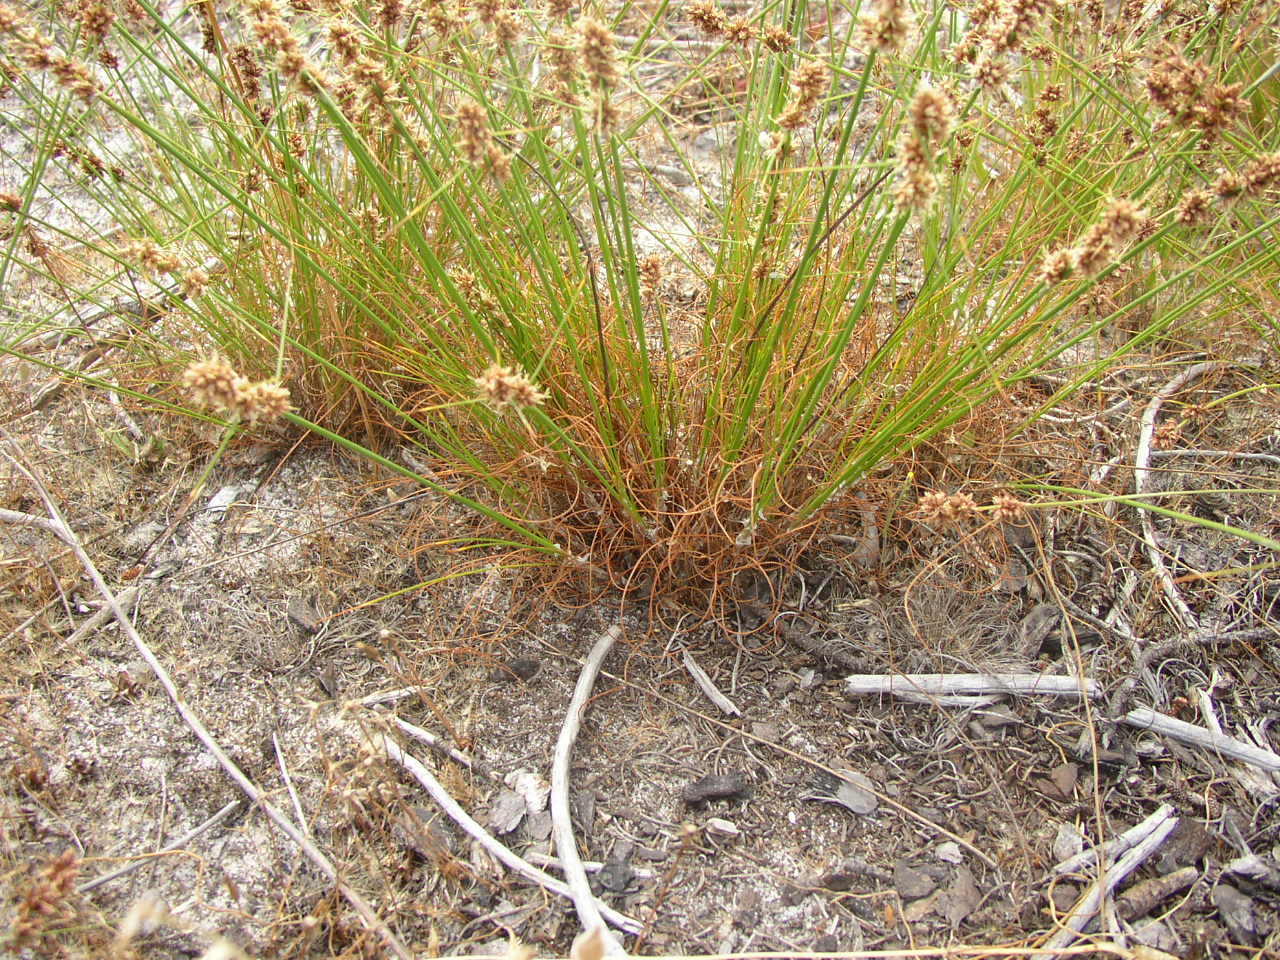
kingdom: Plantae
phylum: Tracheophyta
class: Liliopsida
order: Poales
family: Cyperaceae
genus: Ficinia
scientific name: Ficinia bulbosa
